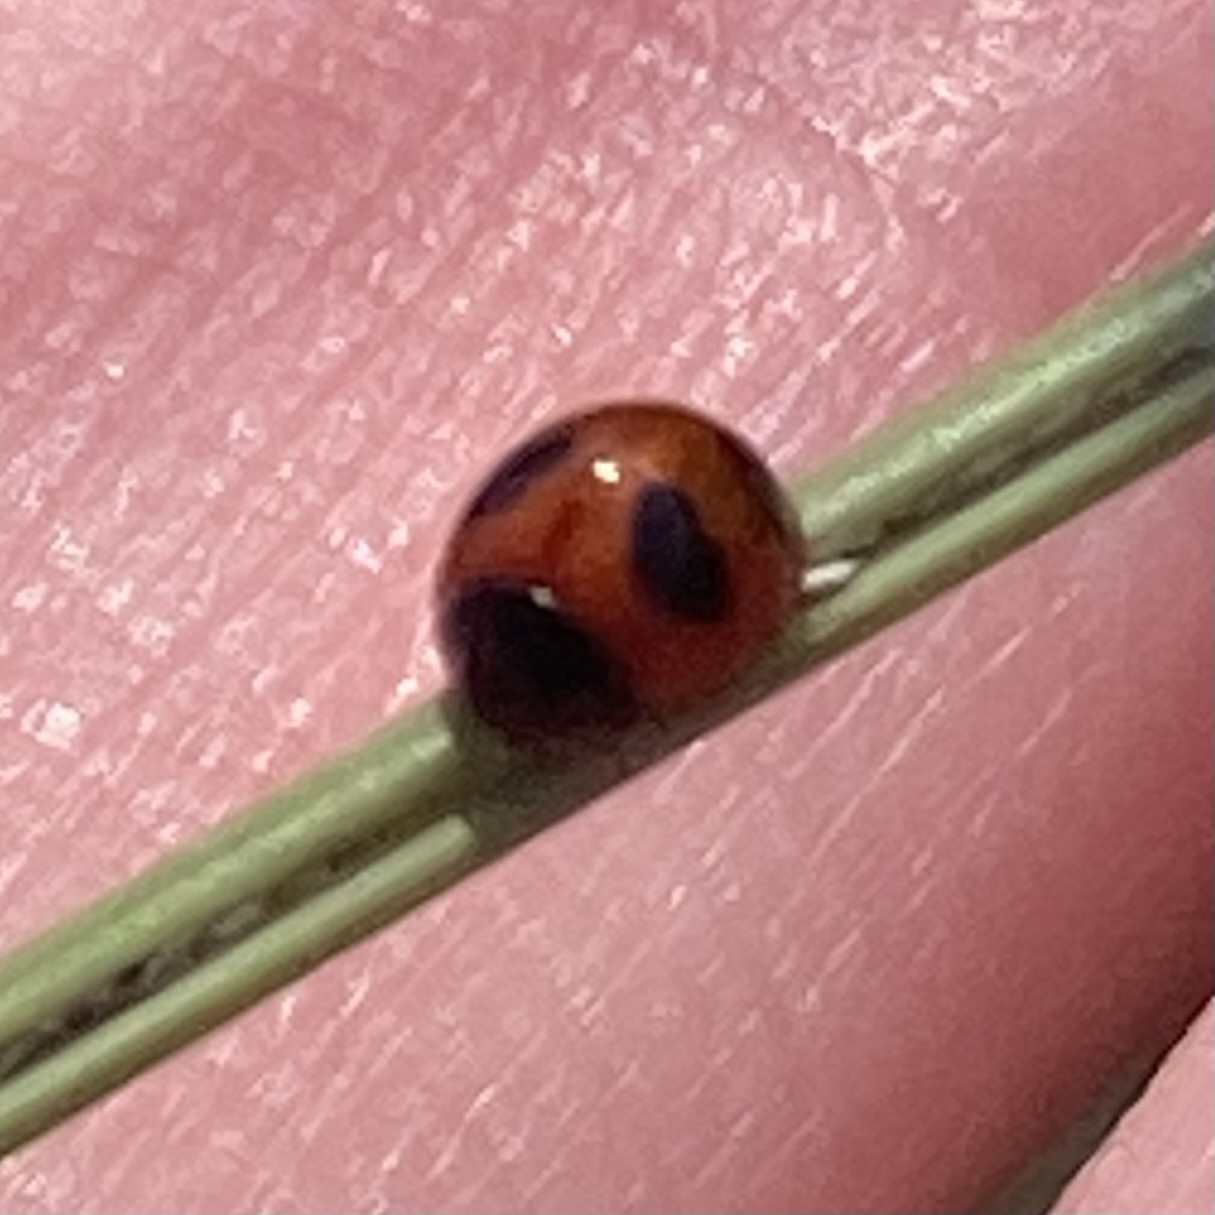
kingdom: Animalia
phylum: Arthropoda
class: Insecta
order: Coleoptera
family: Coccinellidae
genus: Exochomus
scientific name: Exochomus childreni
